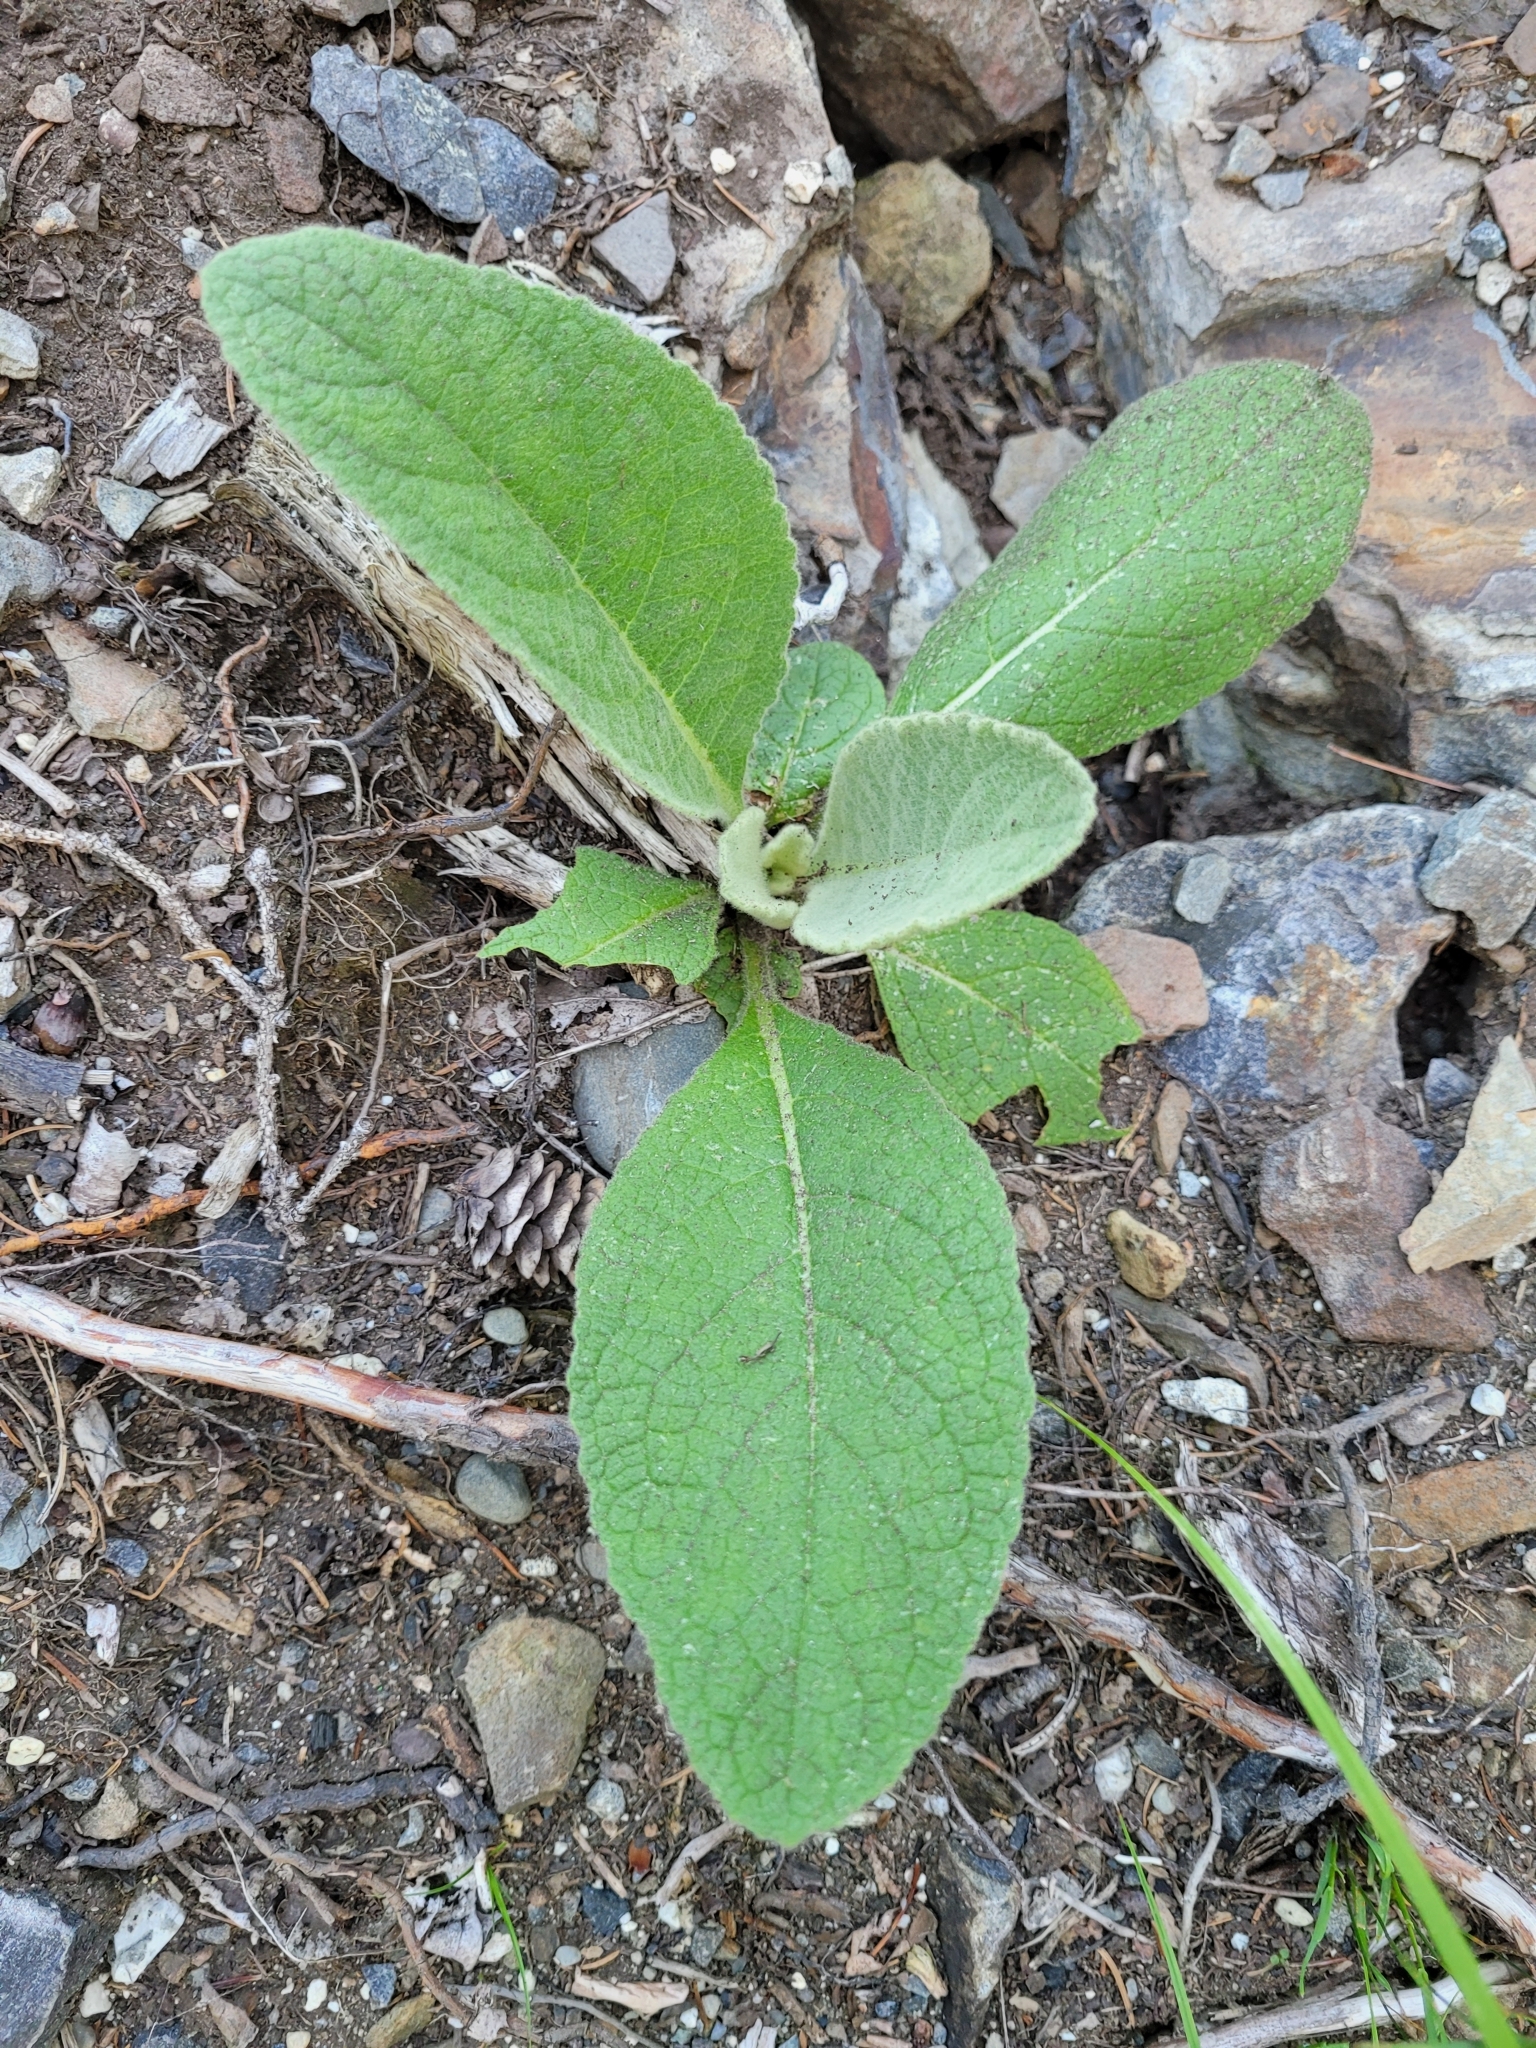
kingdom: Plantae
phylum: Tracheophyta
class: Magnoliopsida
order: Lamiales
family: Scrophulariaceae
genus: Verbascum
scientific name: Verbascum thapsus
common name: Common mullein
